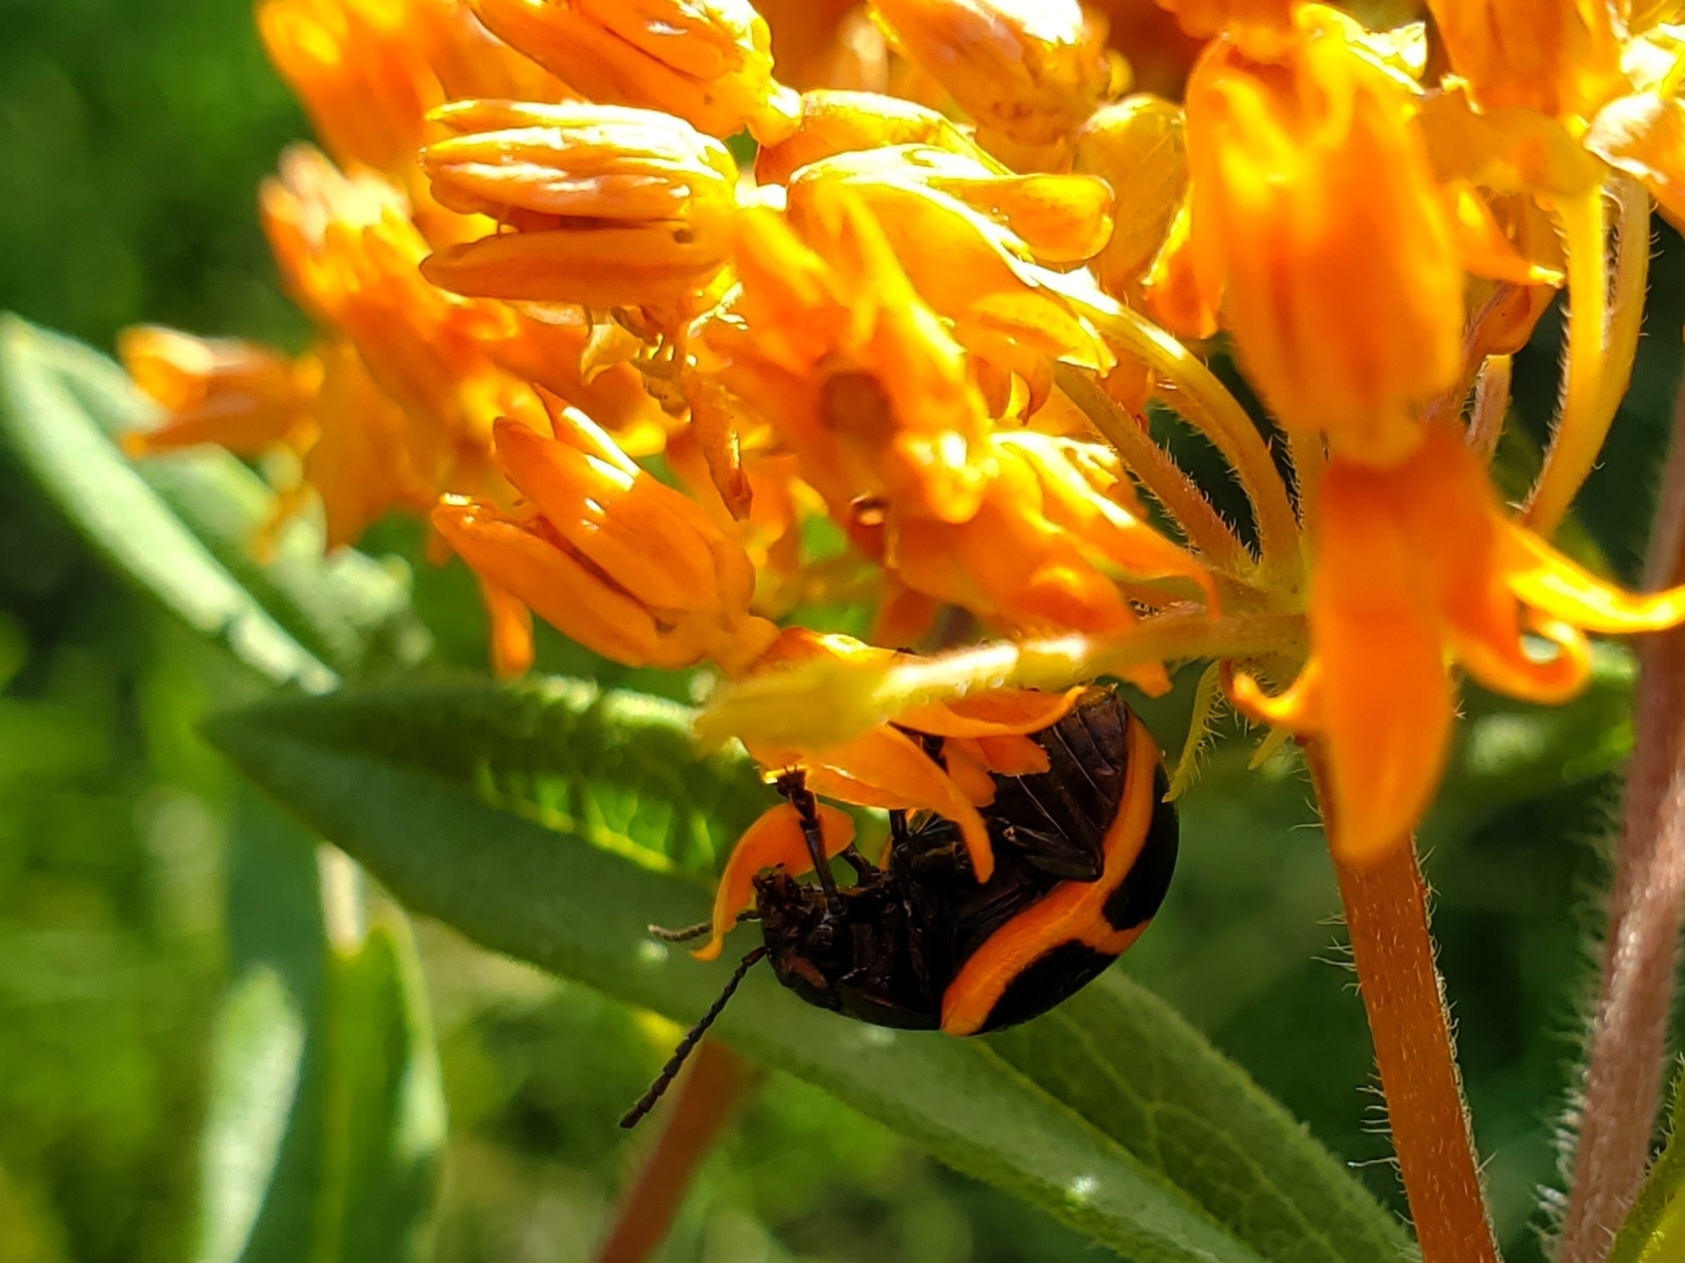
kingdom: Animalia
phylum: Arthropoda
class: Insecta
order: Coleoptera
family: Chrysomelidae
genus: Labidomera
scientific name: Labidomera clivicollis
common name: Swamp milkweed leaf beetle
